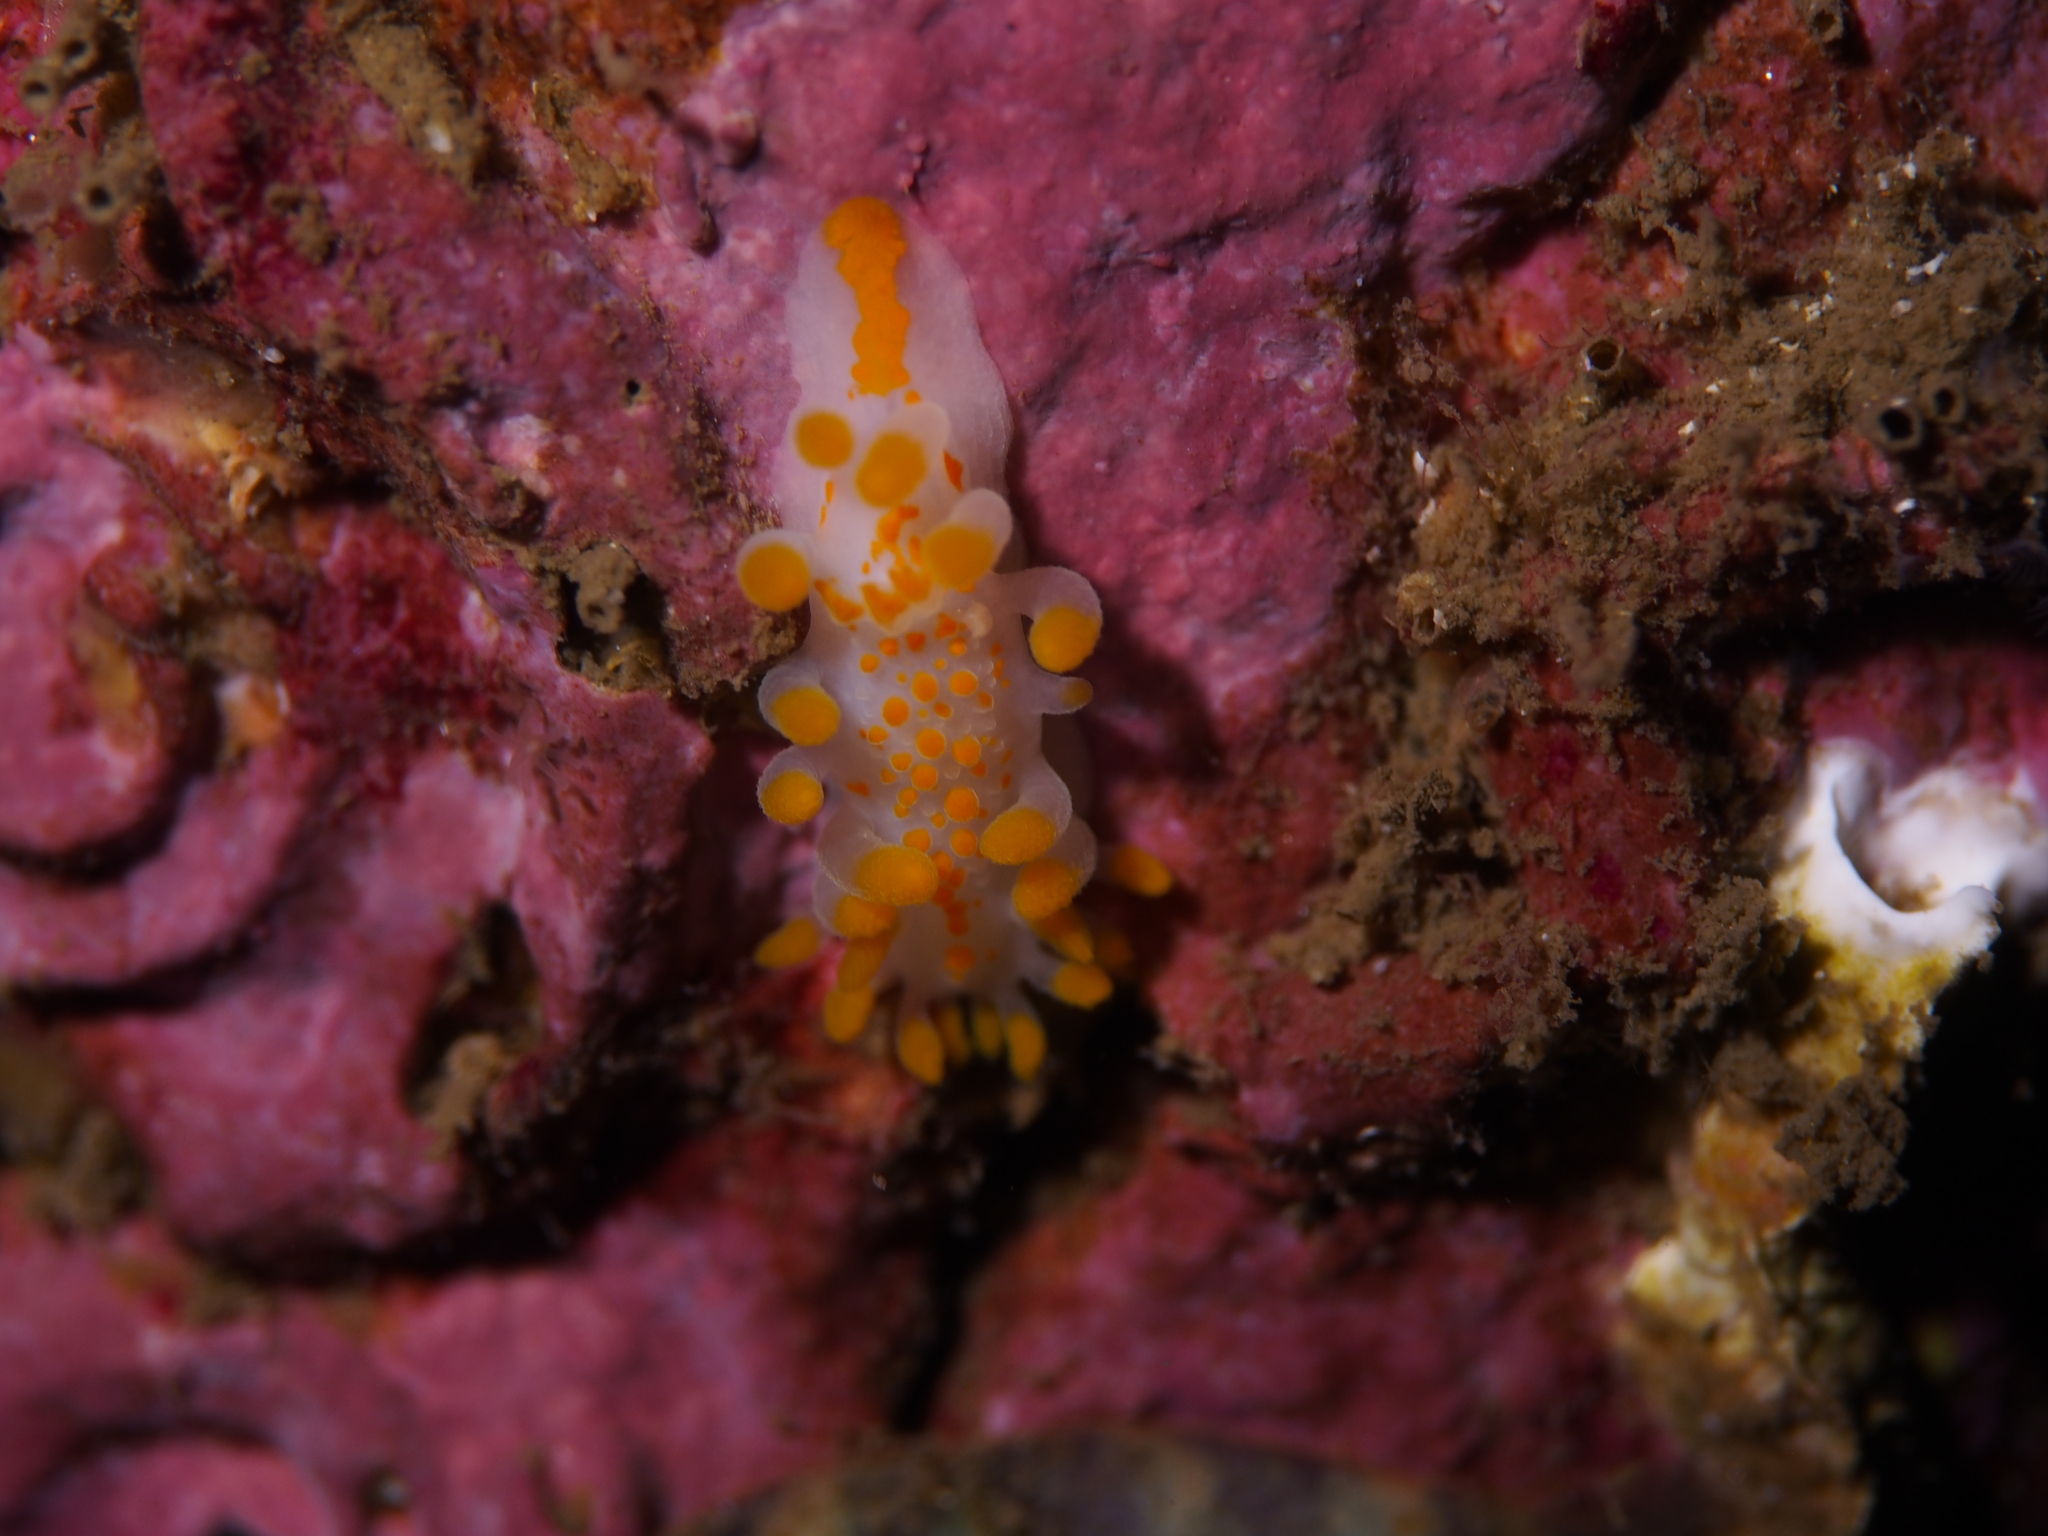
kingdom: Animalia
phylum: Mollusca
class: Gastropoda
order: Nudibranchia
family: Polyceridae
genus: Limacia
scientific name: Limacia clavigera
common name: Orange-clubbed sea slug
